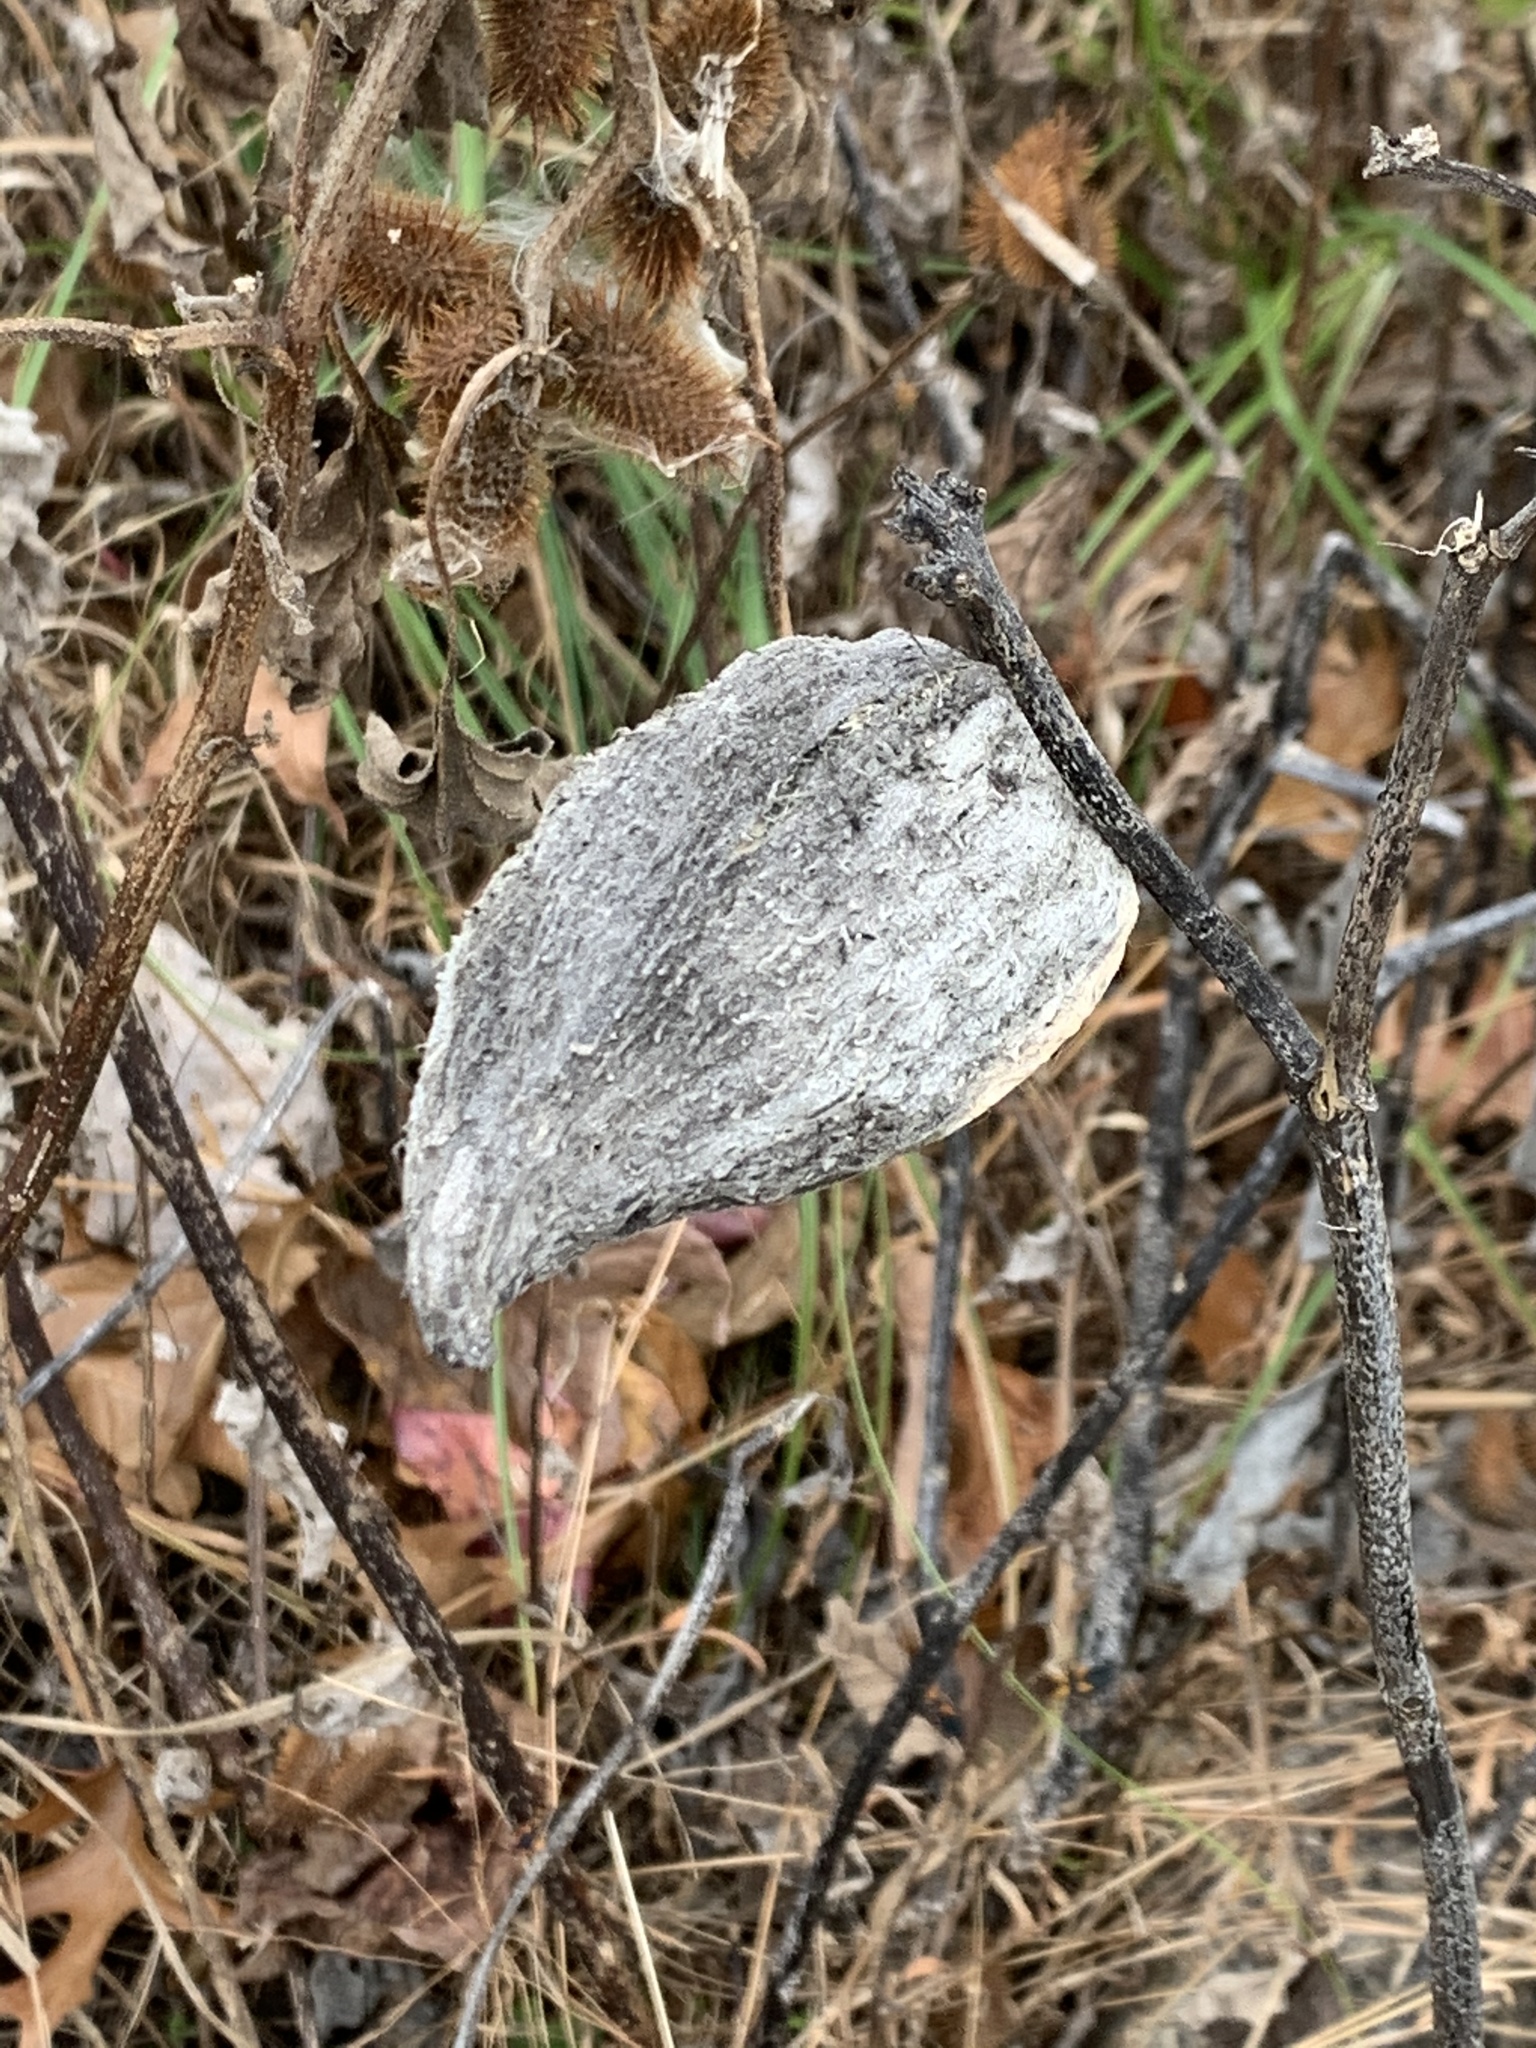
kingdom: Plantae
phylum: Tracheophyta
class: Magnoliopsida
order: Gentianales
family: Apocynaceae
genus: Asclepias
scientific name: Asclepias syriaca
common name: Common milkweed
